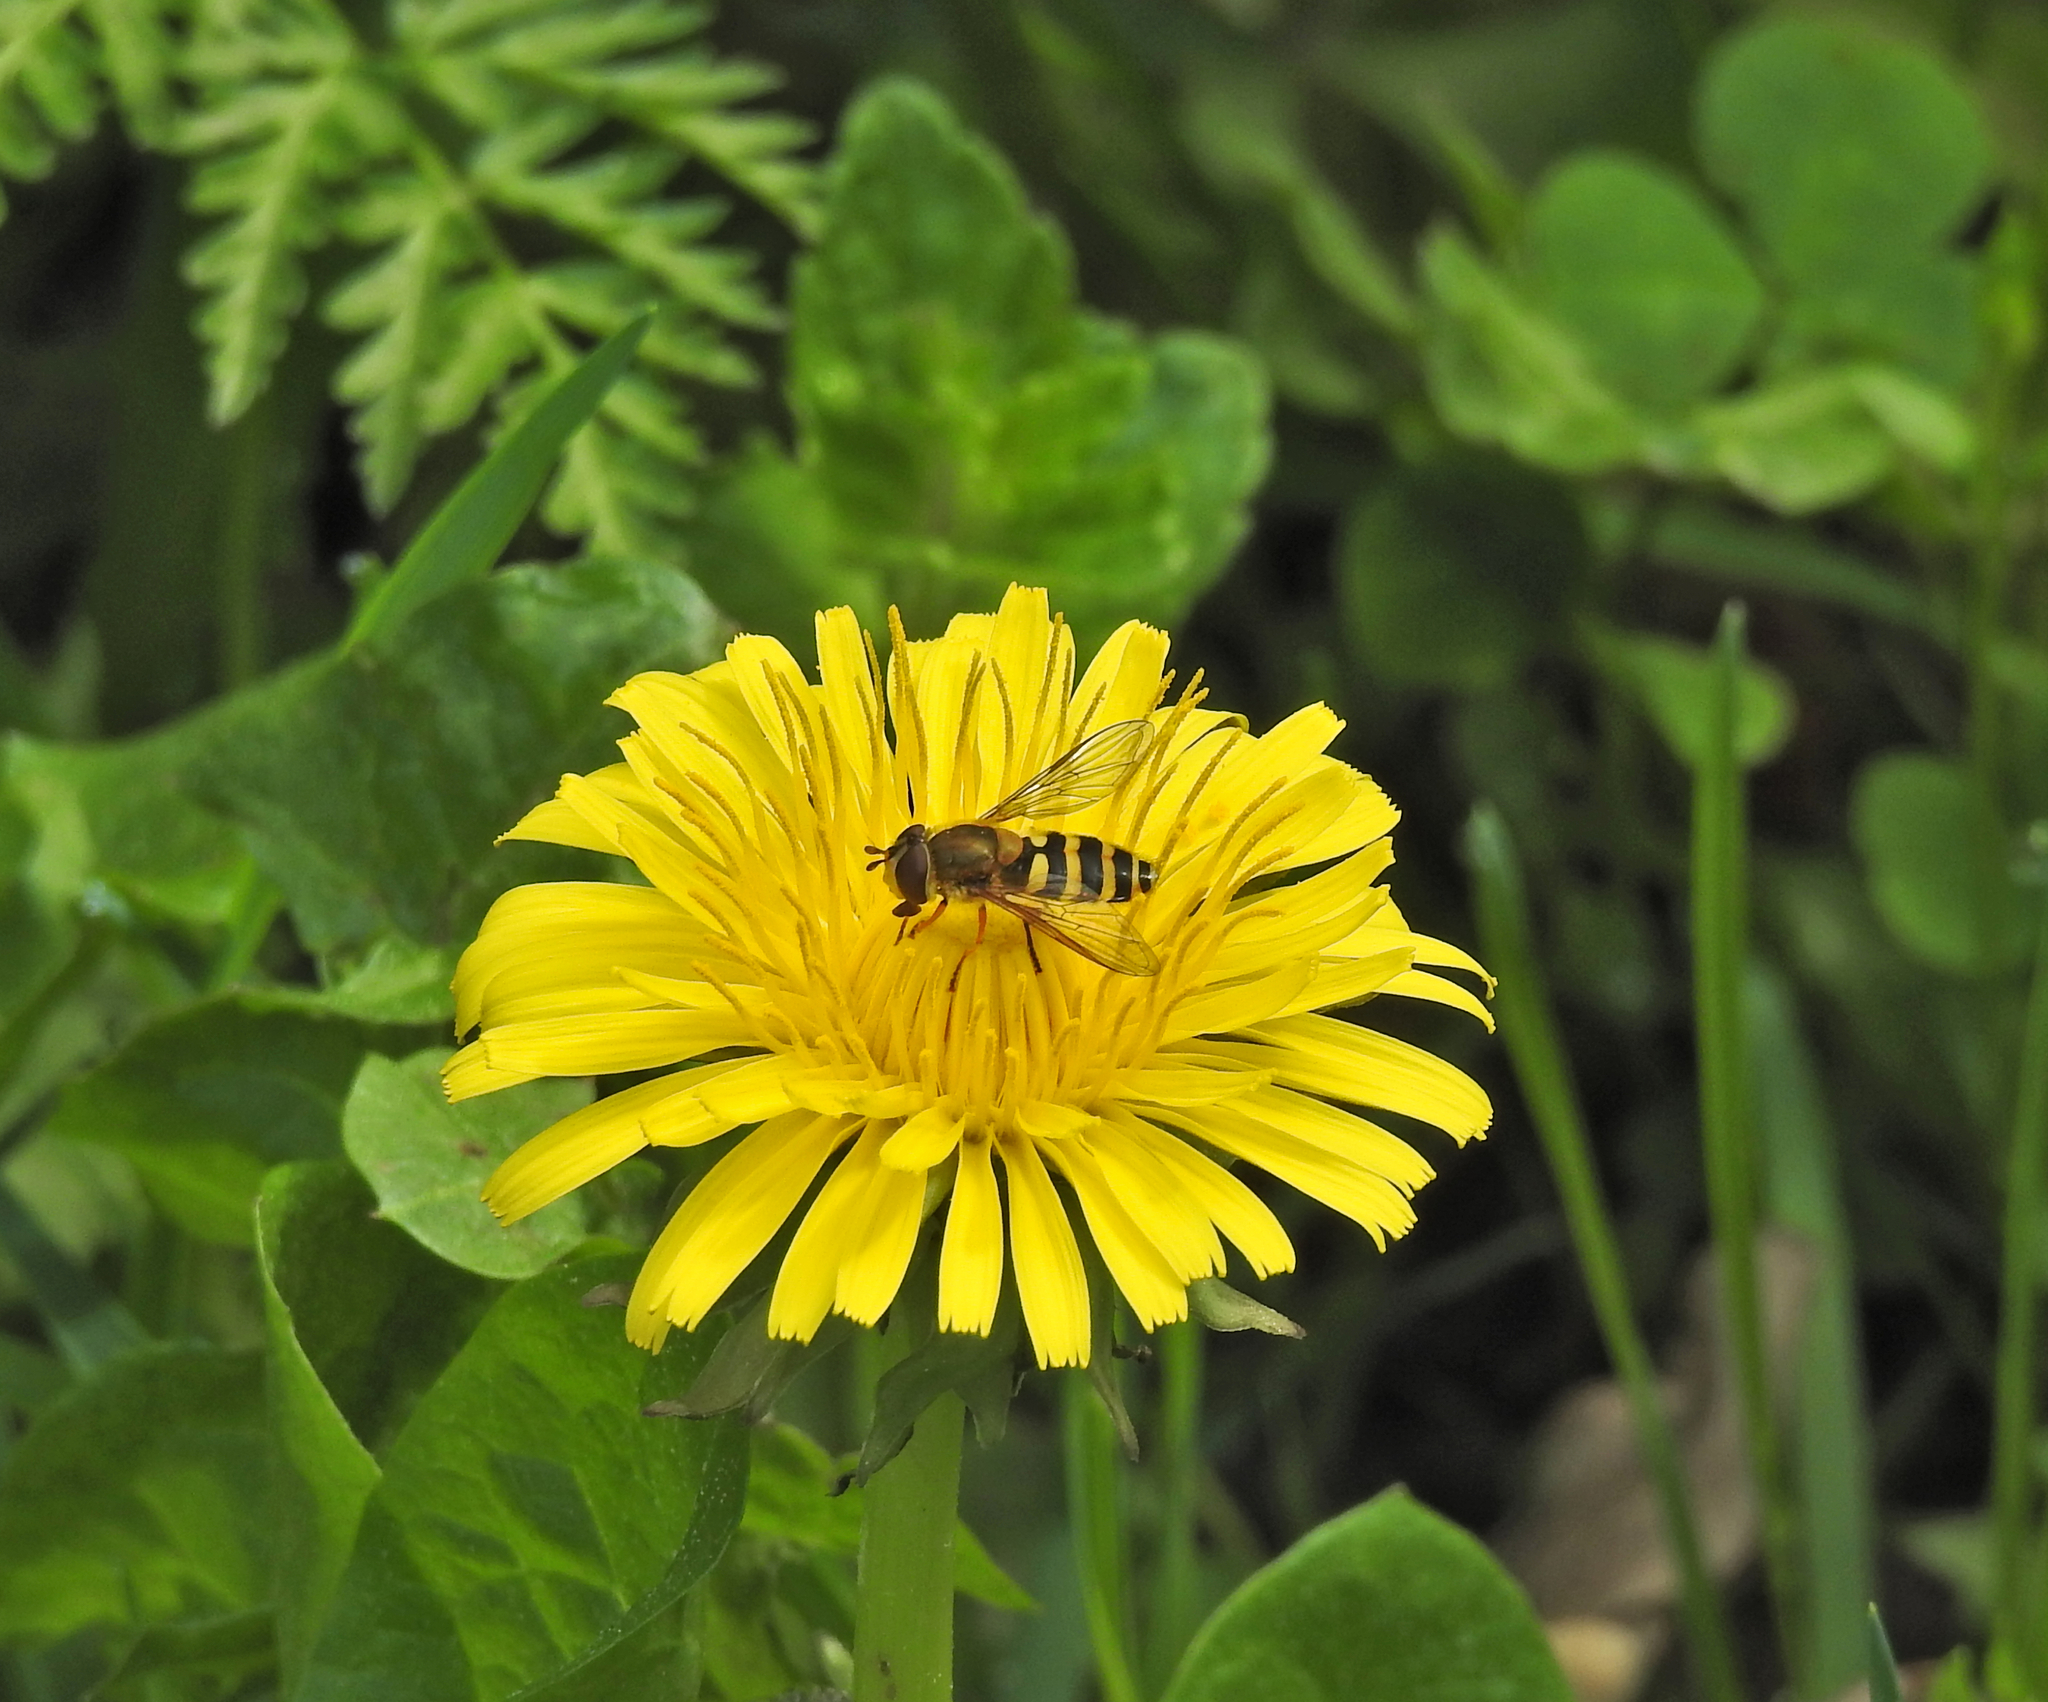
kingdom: Animalia
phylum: Arthropoda
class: Insecta
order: Diptera
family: Syrphidae
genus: Syrphus
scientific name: Syrphus
